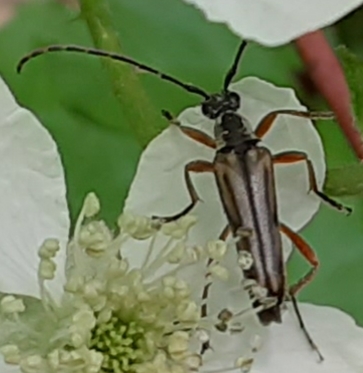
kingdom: Animalia
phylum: Arthropoda
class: Insecta
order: Coleoptera
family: Cerambycidae
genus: Analeptura
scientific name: Analeptura lineola
